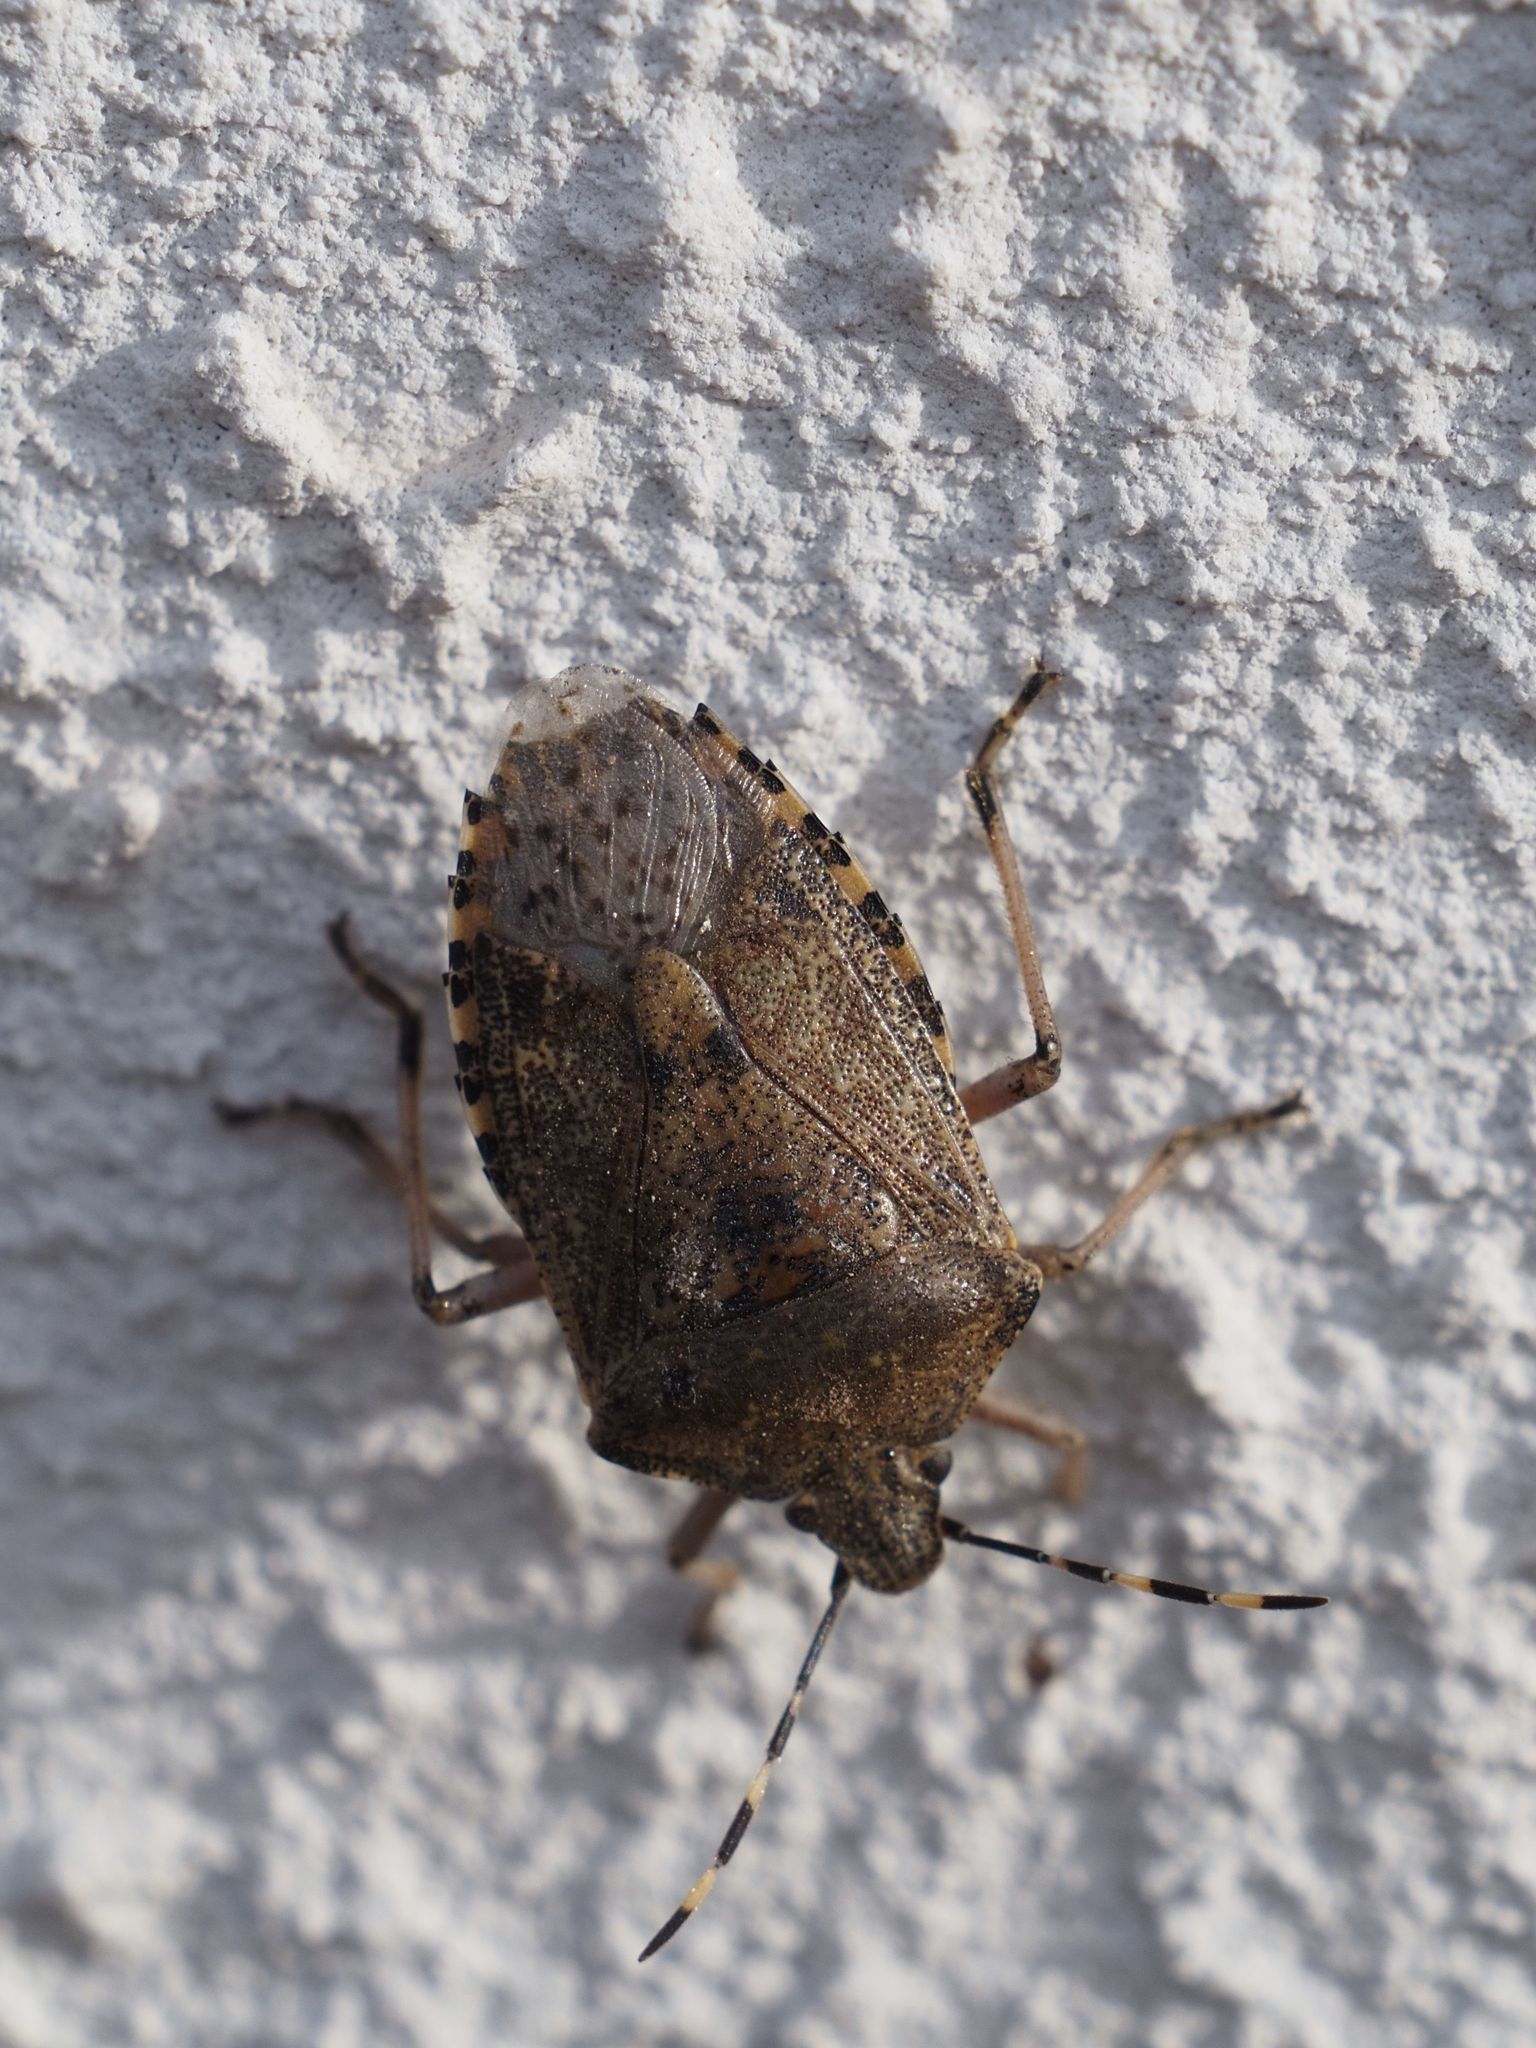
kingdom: Animalia
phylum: Arthropoda
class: Insecta
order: Hemiptera
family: Pentatomidae
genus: Rhaphigaster
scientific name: Rhaphigaster nebulosa
